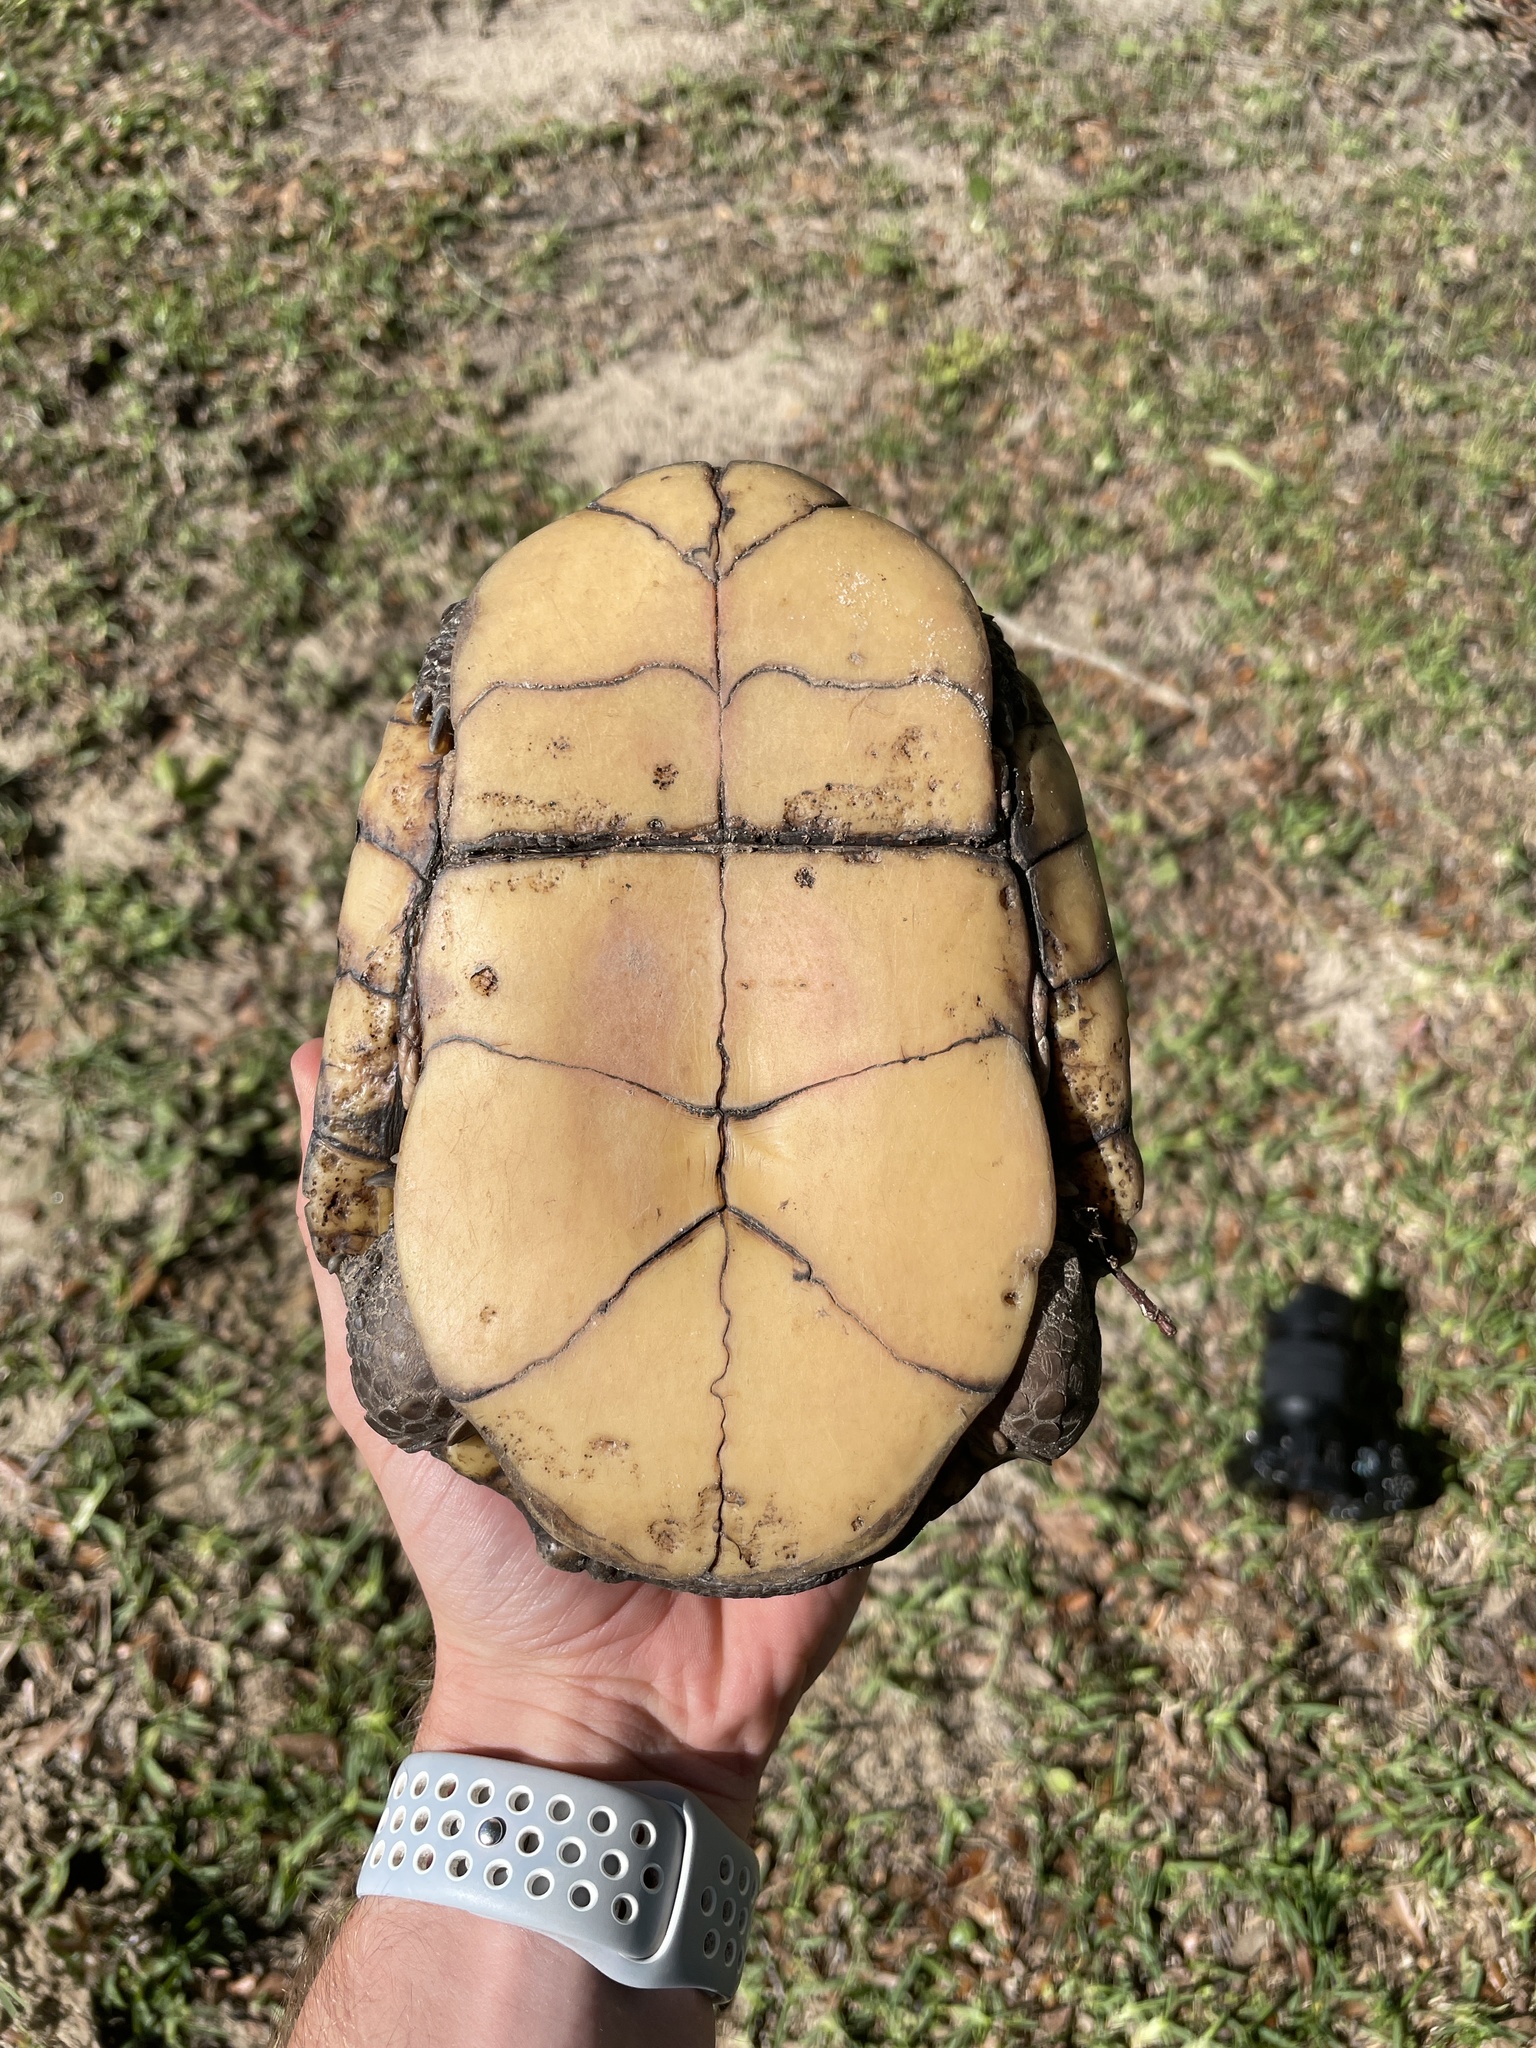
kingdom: Animalia
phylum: Chordata
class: Testudines
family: Emydidae
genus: Terrapene
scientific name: Terrapene carolina
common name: Common box turtle
